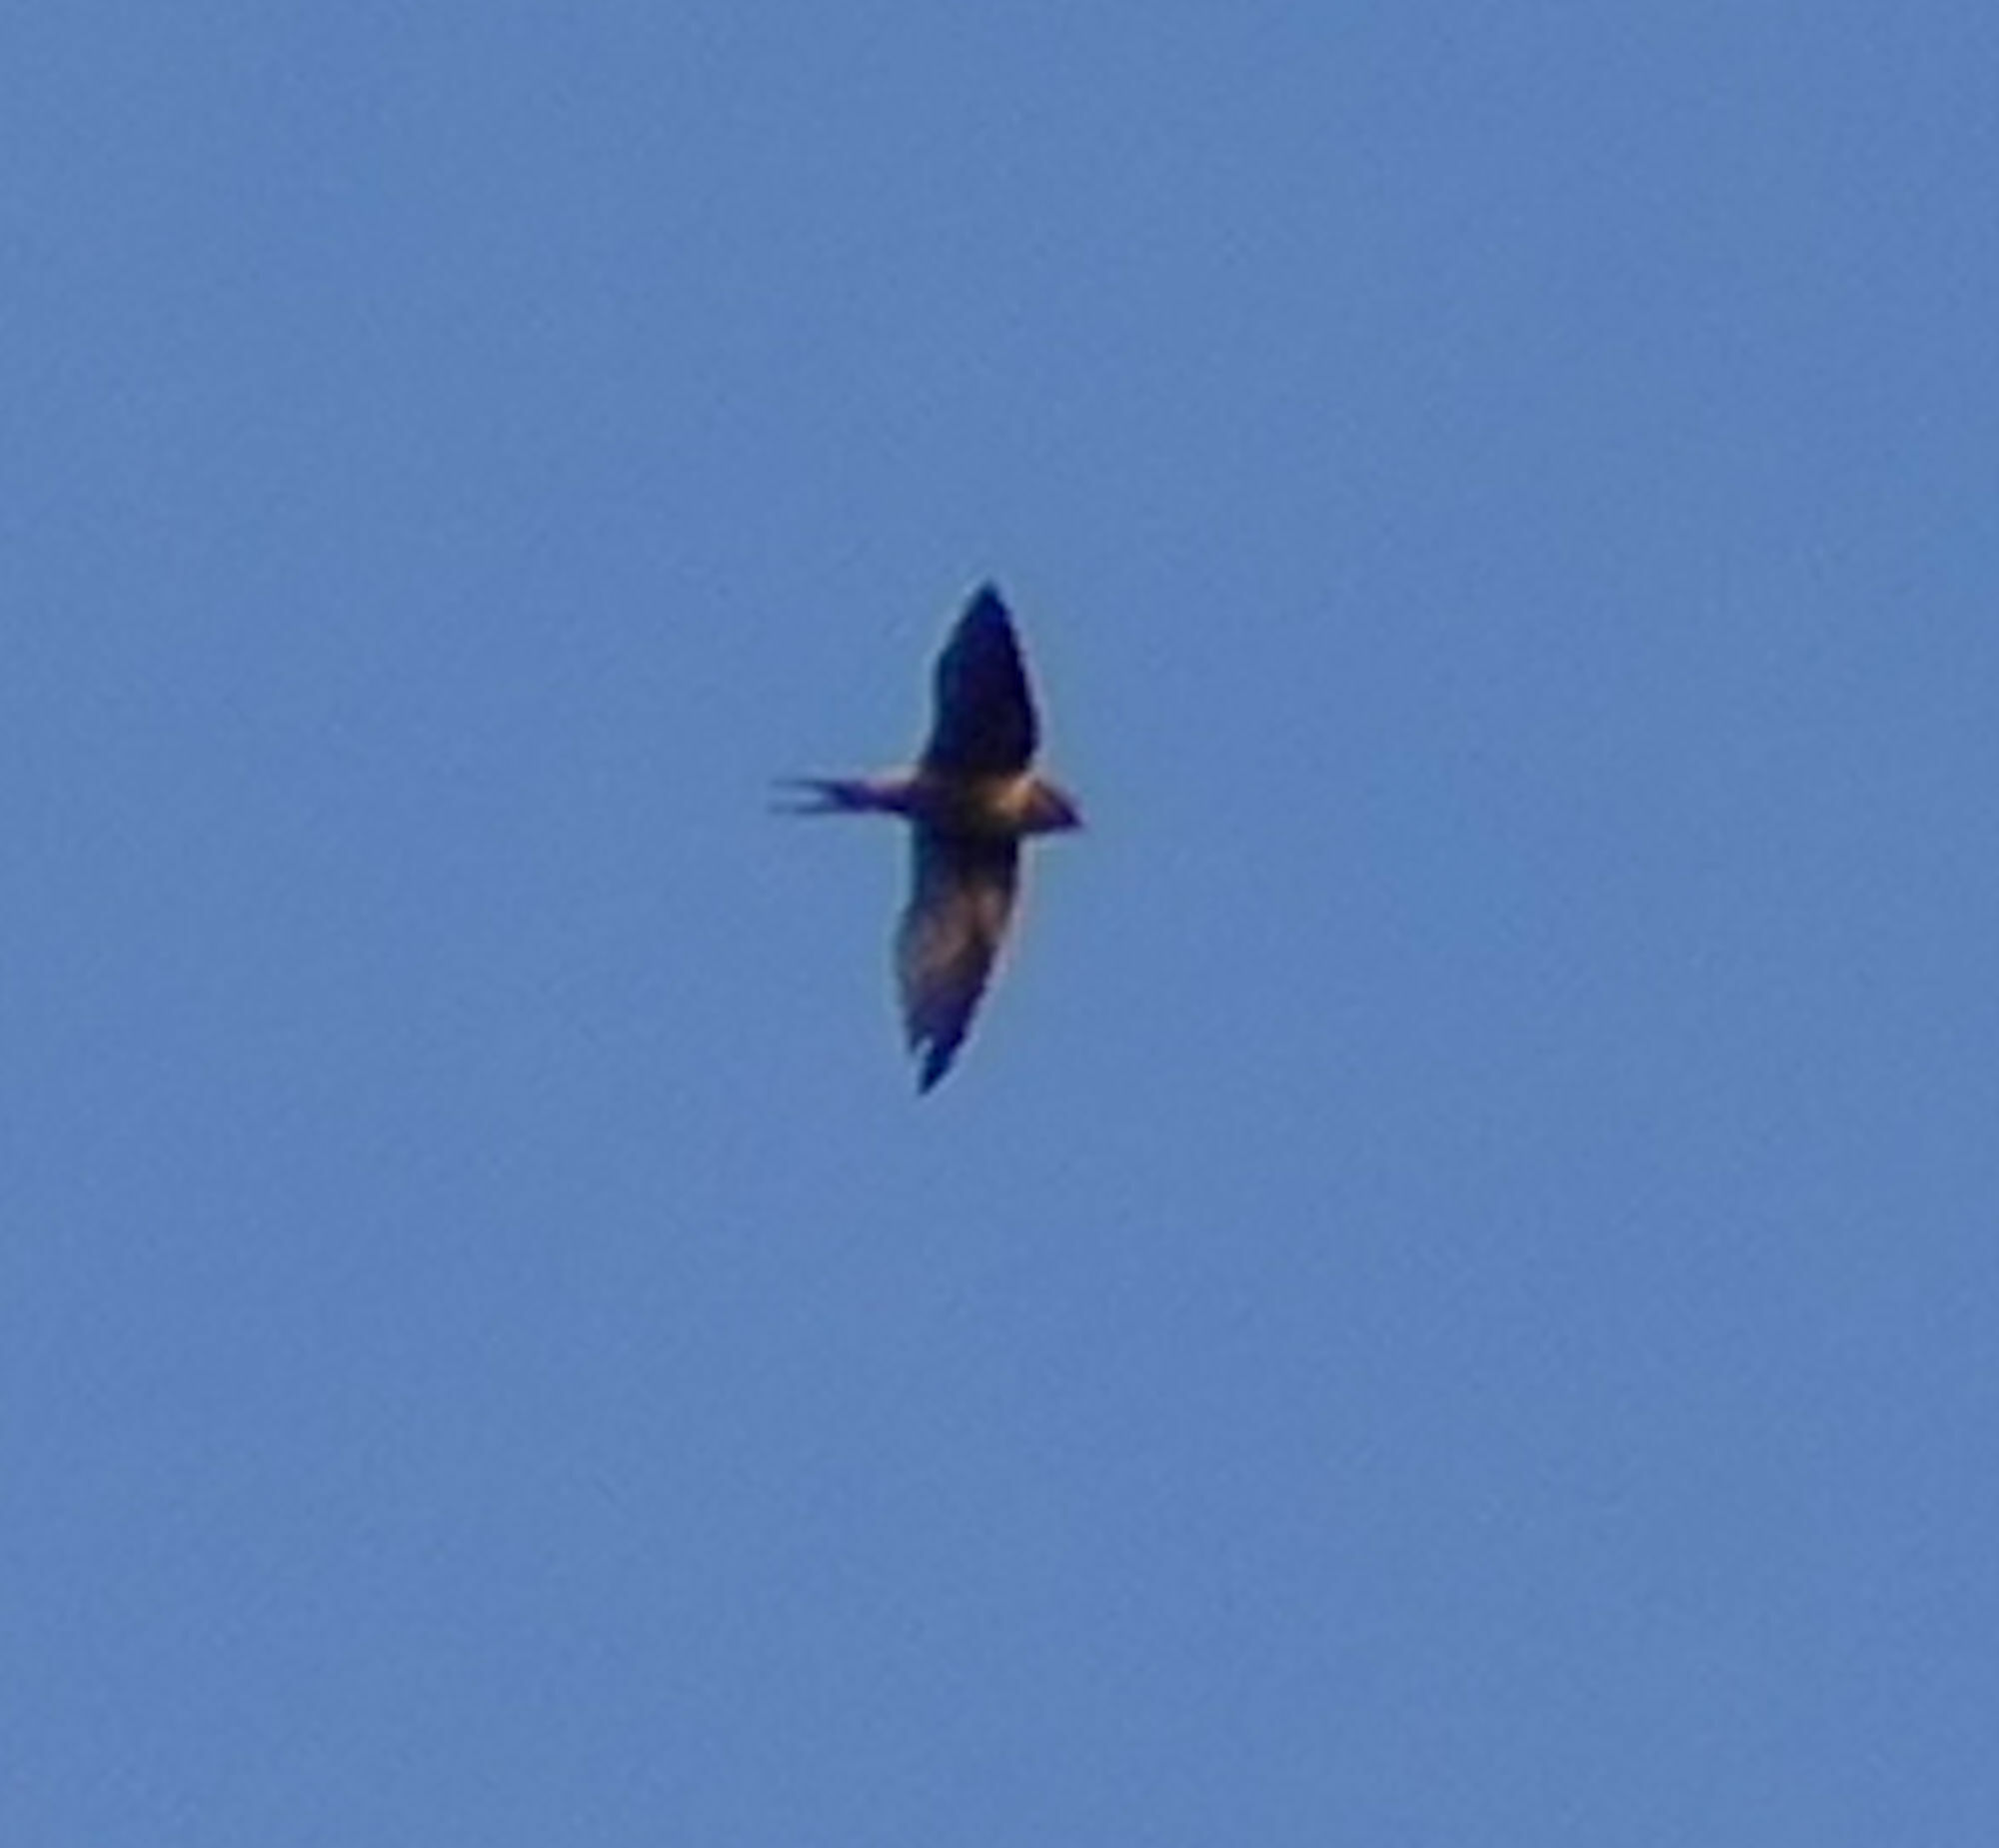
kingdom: Animalia
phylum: Chordata
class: Aves
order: Passeriformes
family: Hirundinidae
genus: Hirundo
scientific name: Hirundo rustica
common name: Barn swallow
